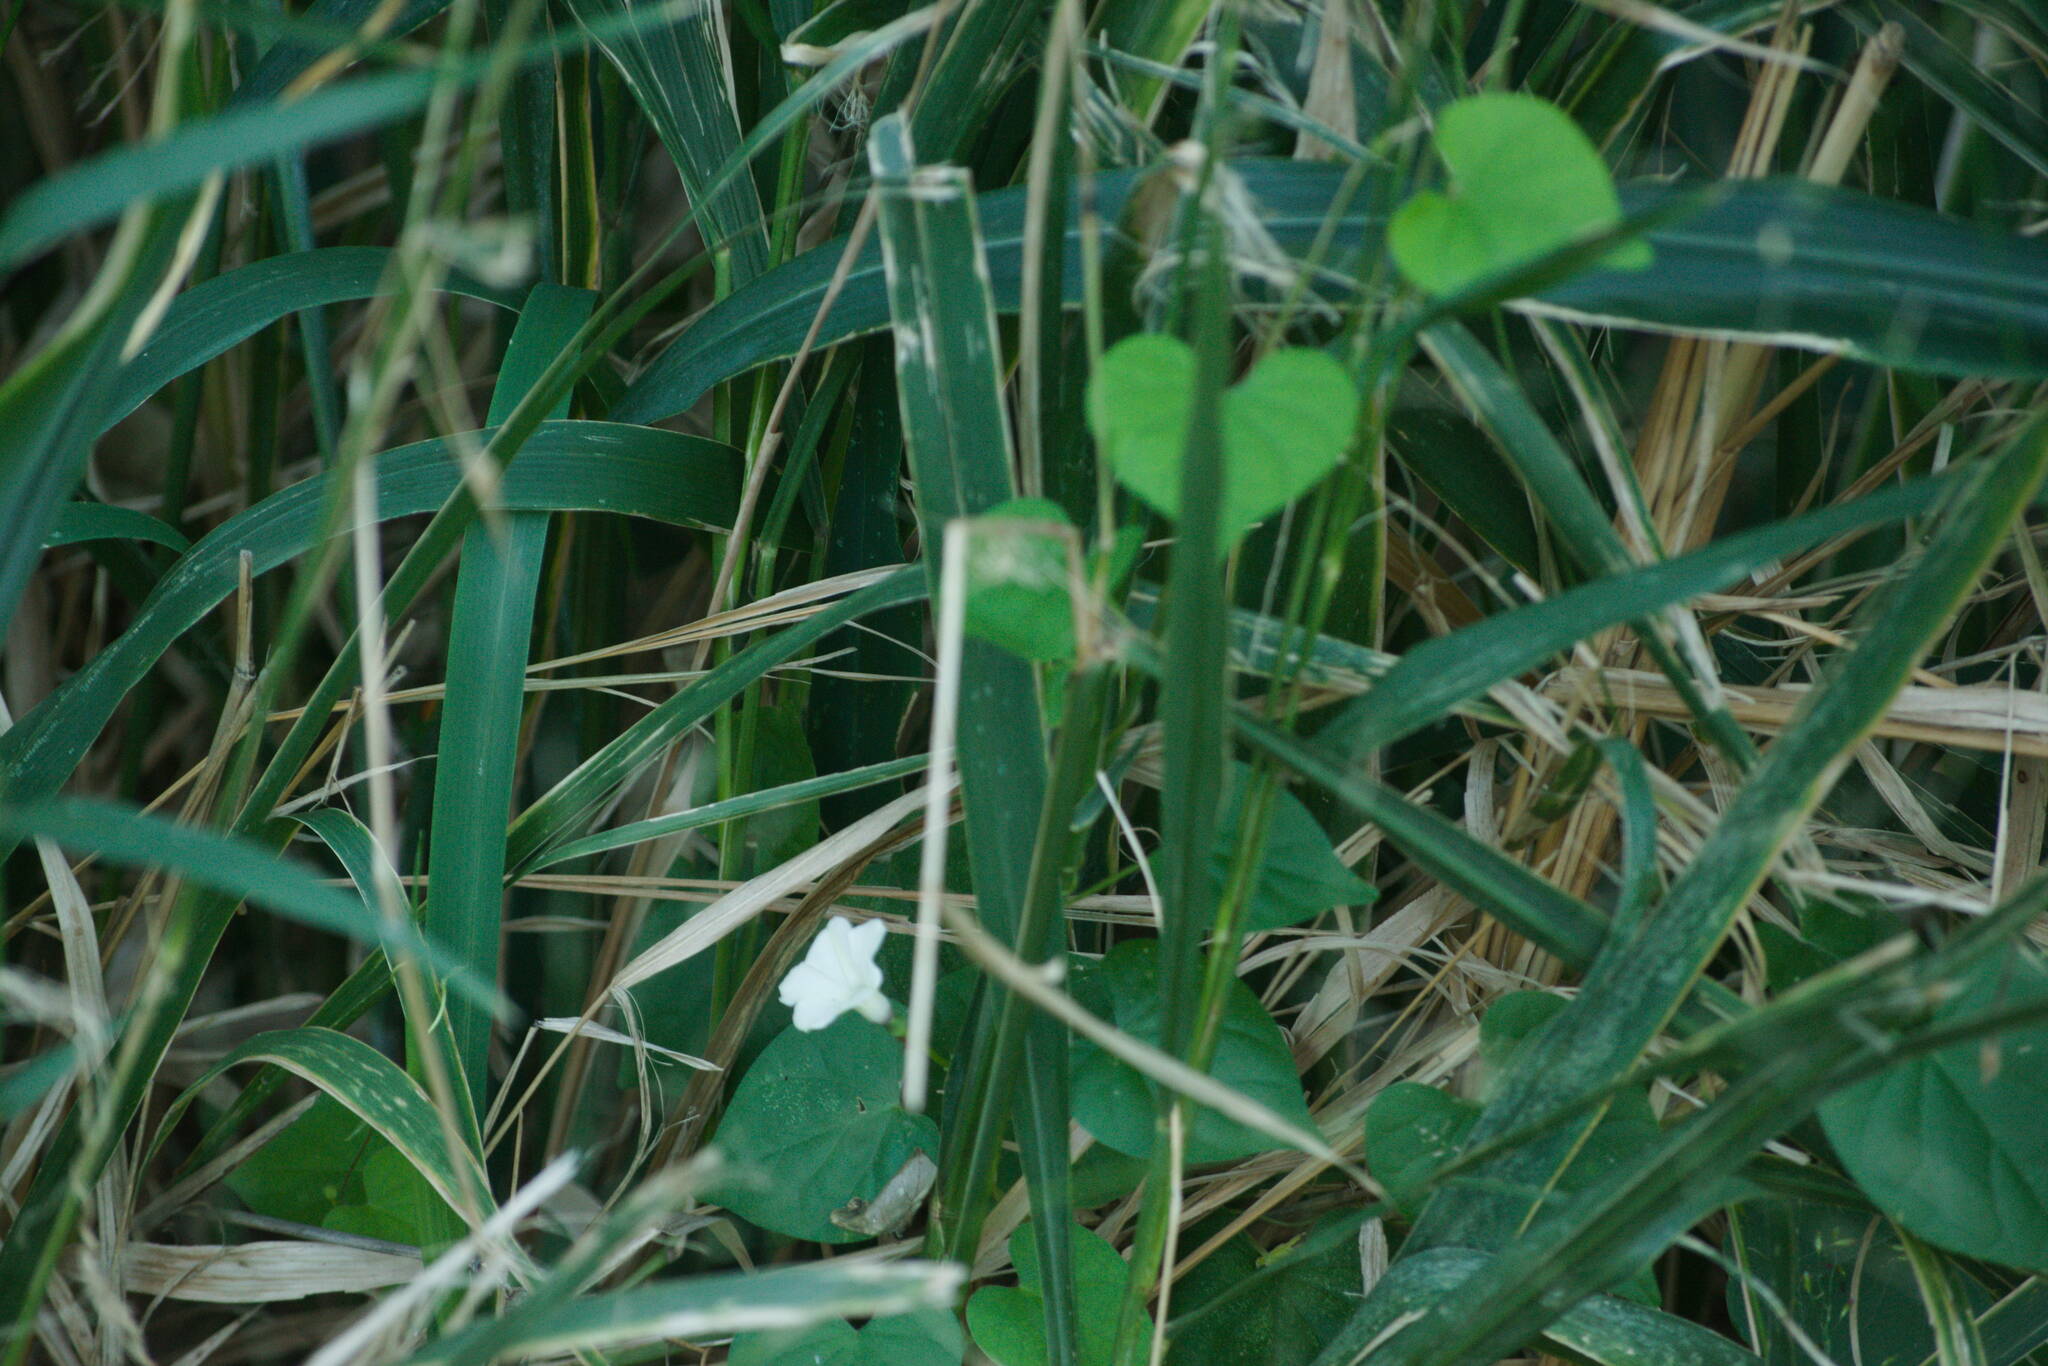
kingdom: Plantae
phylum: Tracheophyta
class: Magnoliopsida
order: Solanales
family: Convolvulaceae
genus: Ipomoea
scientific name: Ipomoea obscura
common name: Obscure morning-glory
